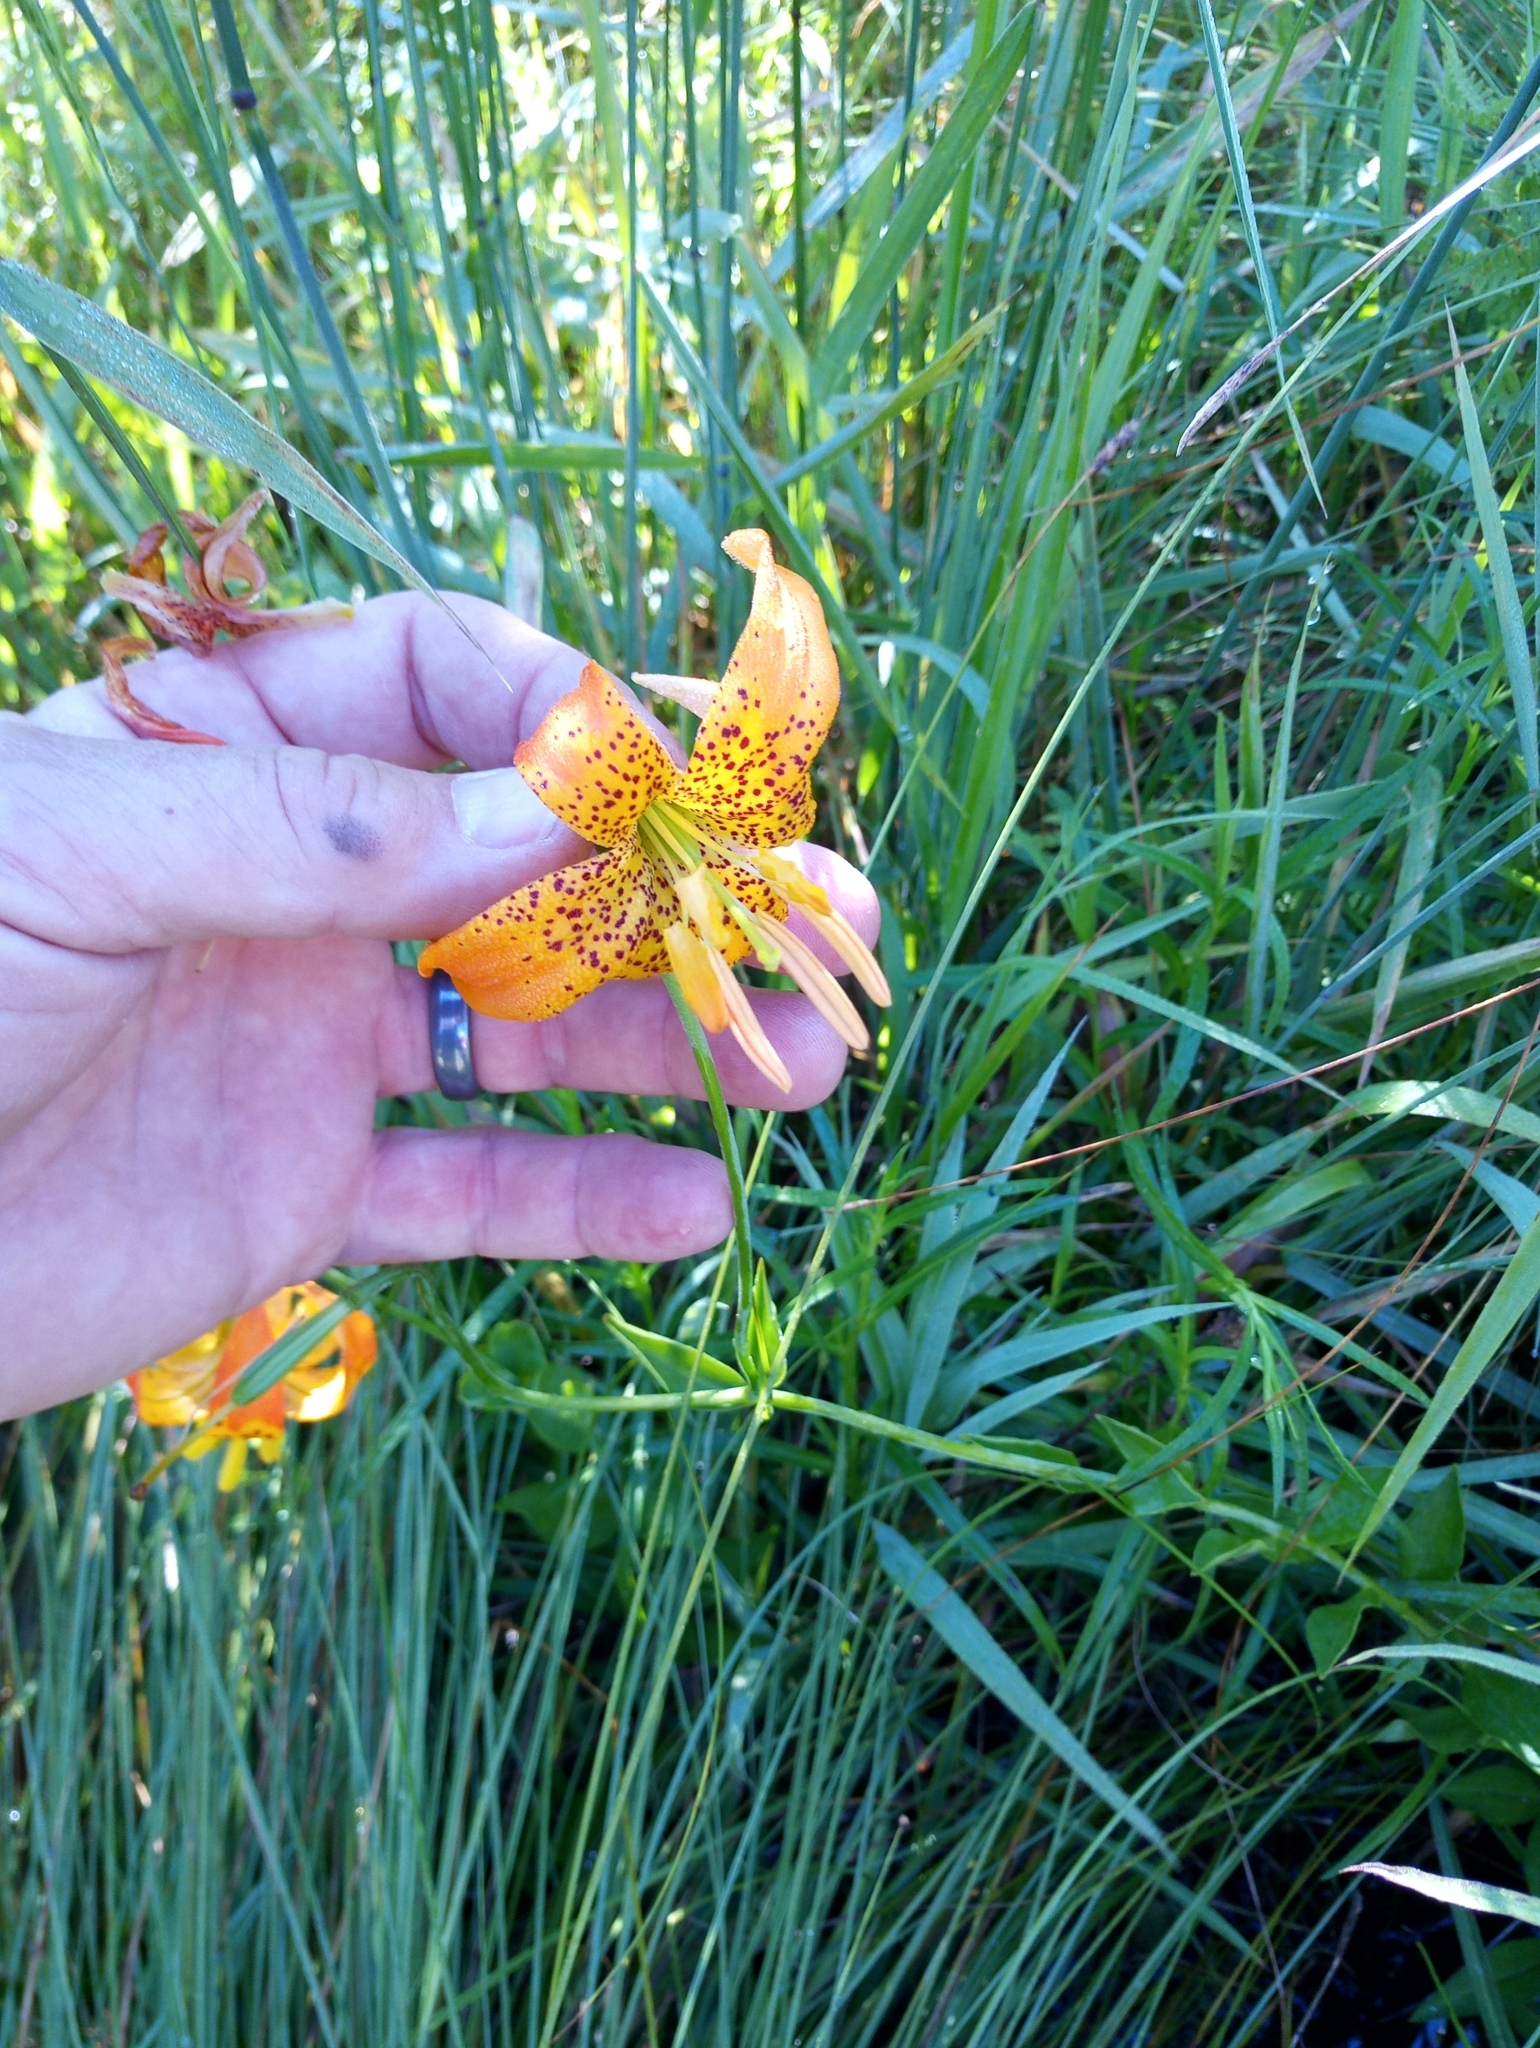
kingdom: Plantae
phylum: Tracheophyta
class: Liliopsida
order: Liliales
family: Liliaceae
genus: Lilium
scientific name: Lilium pardalinum
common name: Panther lily
